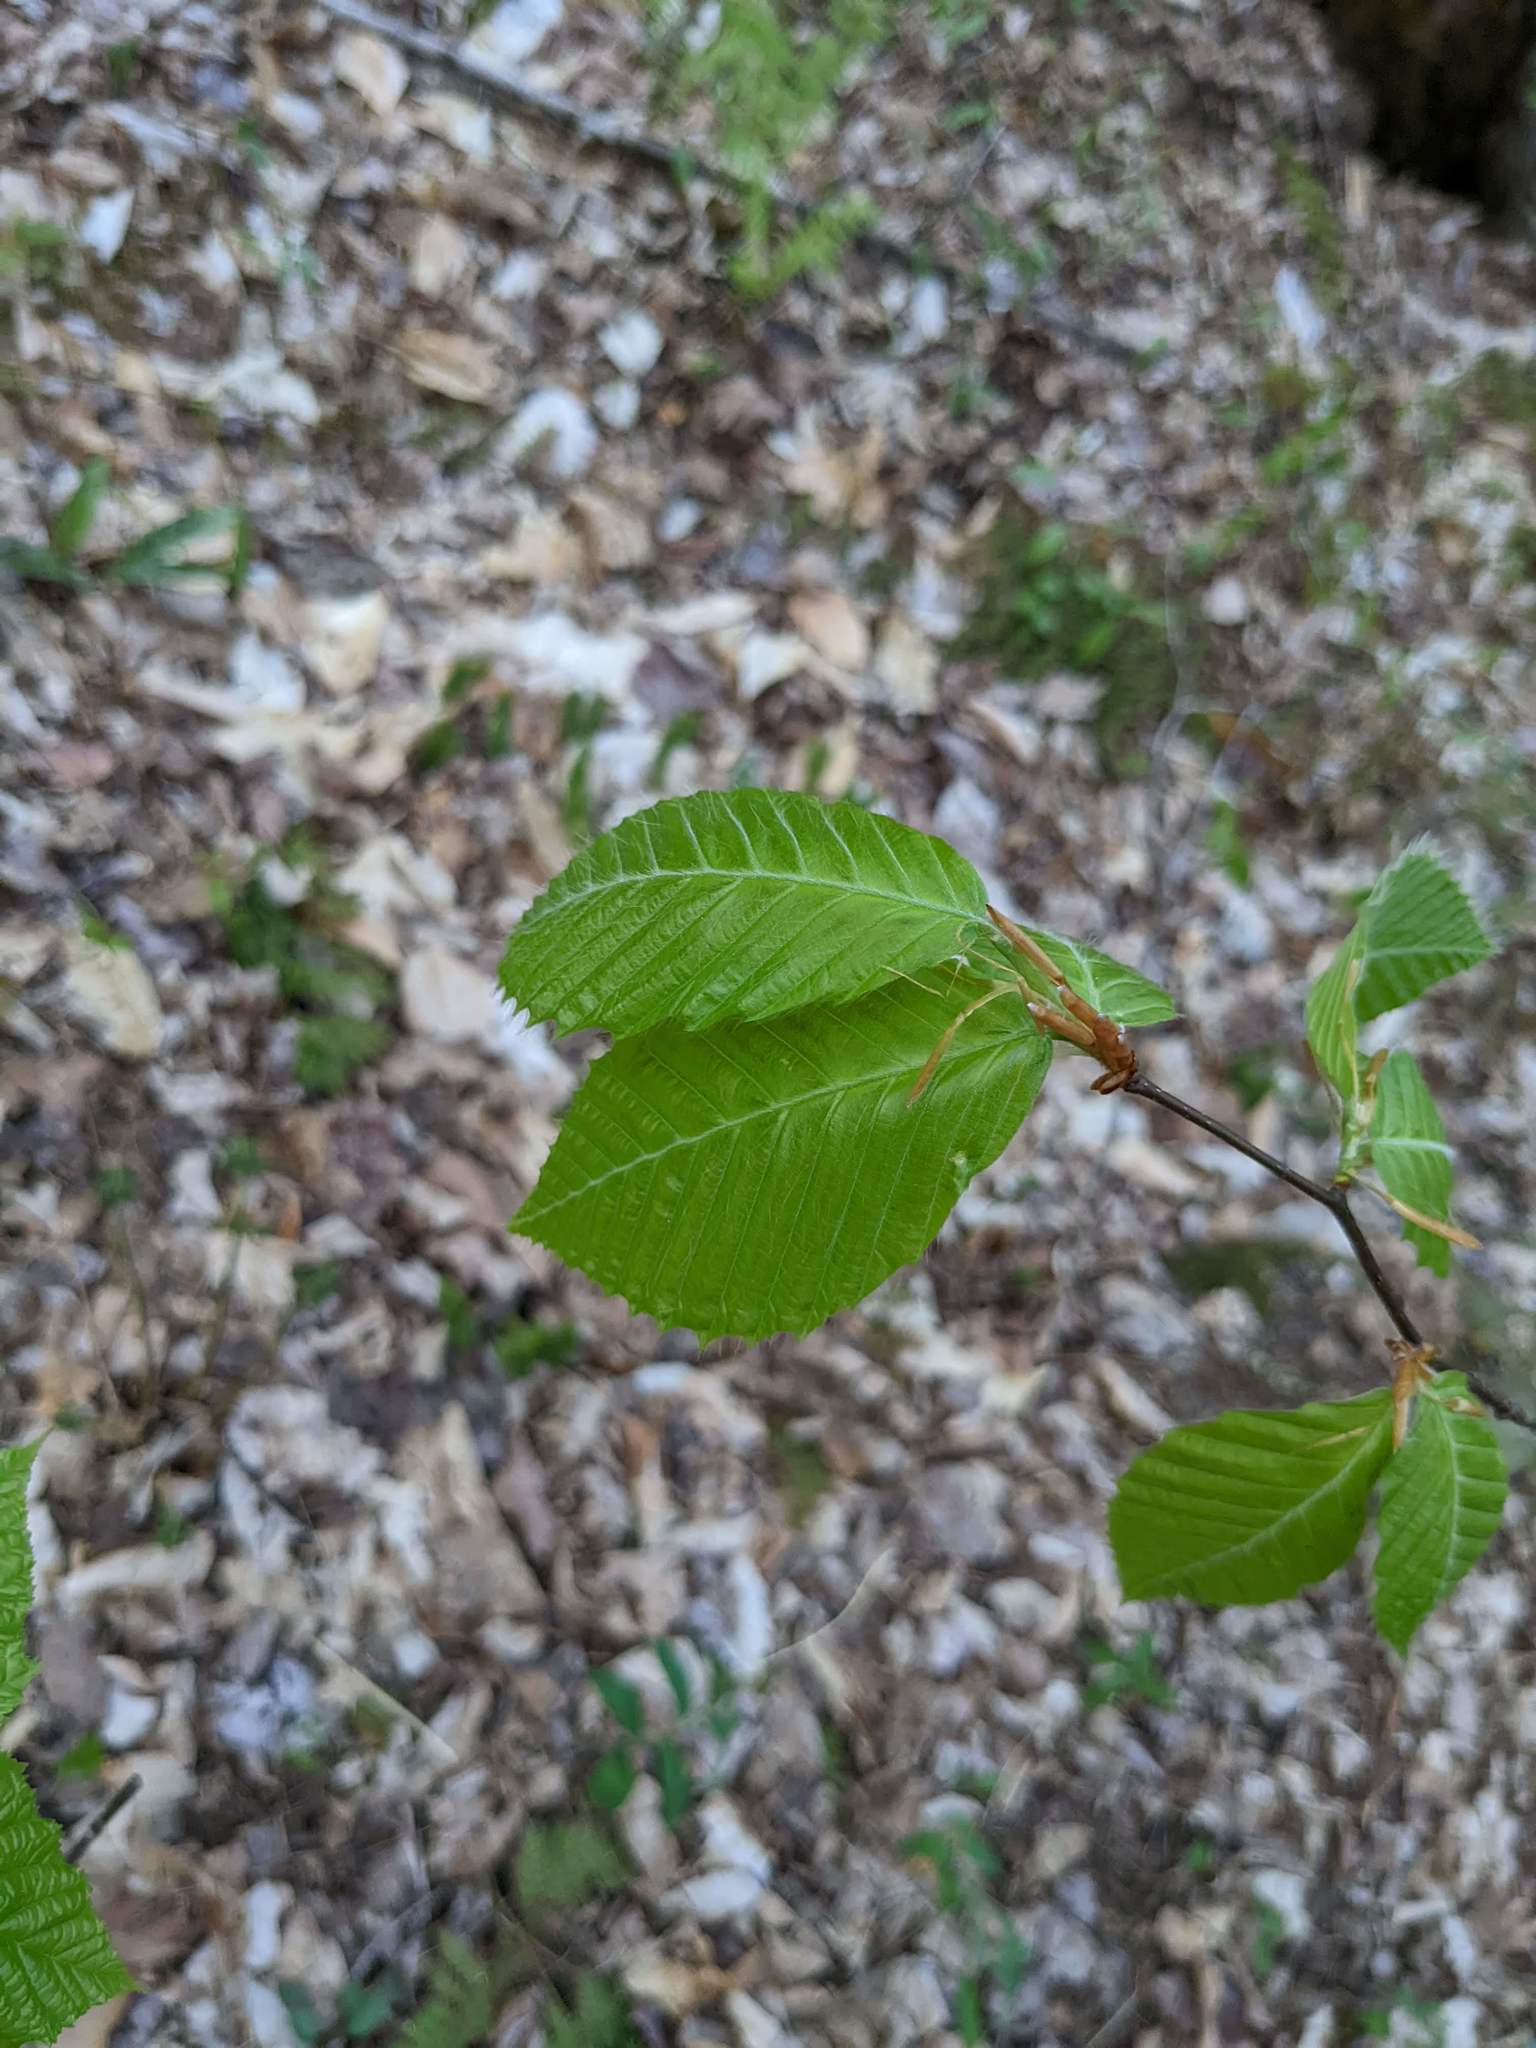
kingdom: Plantae
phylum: Tracheophyta
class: Magnoliopsida
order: Fagales
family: Fagaceae
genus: Fagus
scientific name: Fagus grandifolia
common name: American beech
